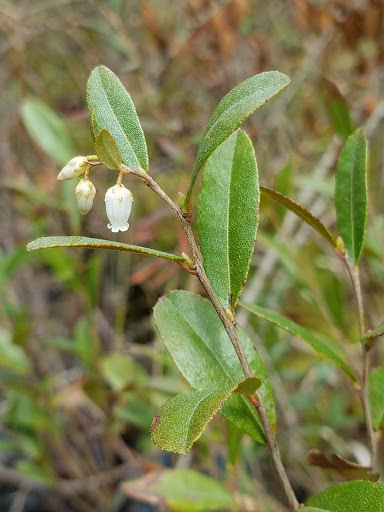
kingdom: Plantae
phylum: Tracheophyta
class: Magnoliopsida
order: Ericales
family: Ericaceae
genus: Chamaedaphne
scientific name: Chamaedaphne calyculata
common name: Leatherleaf
